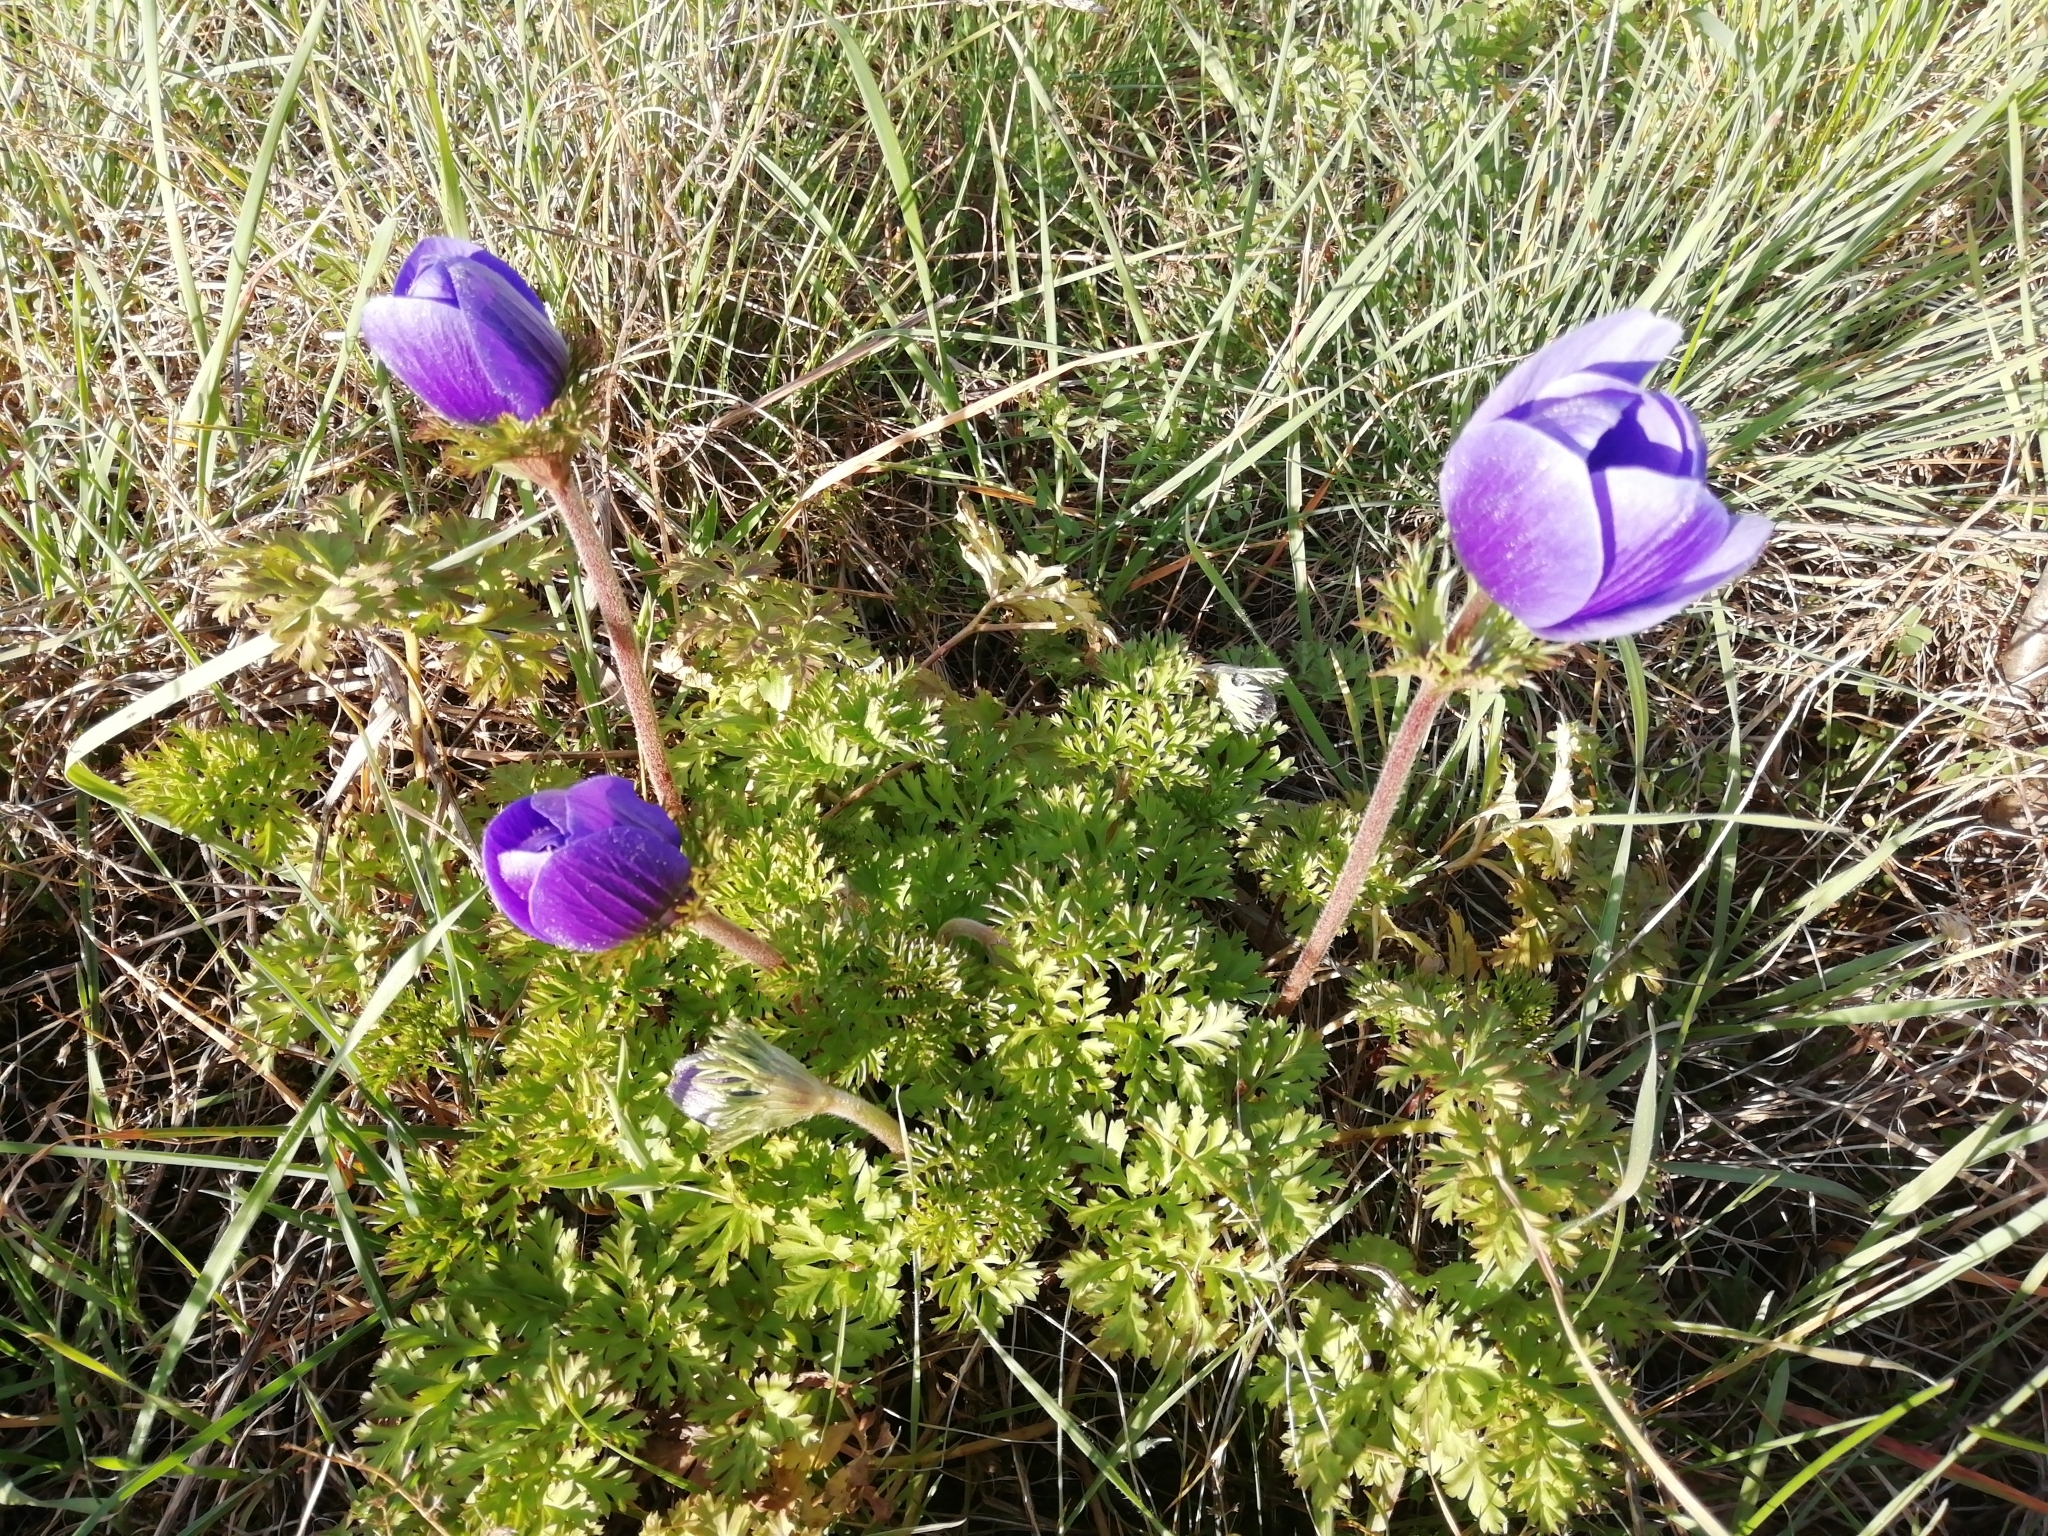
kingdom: Plantae
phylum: Tracheophyta
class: Magnoliopsida
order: Ranunculales
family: Ranunculaceae
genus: Anemone
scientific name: Anemone coronaria
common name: Poppy anemone
